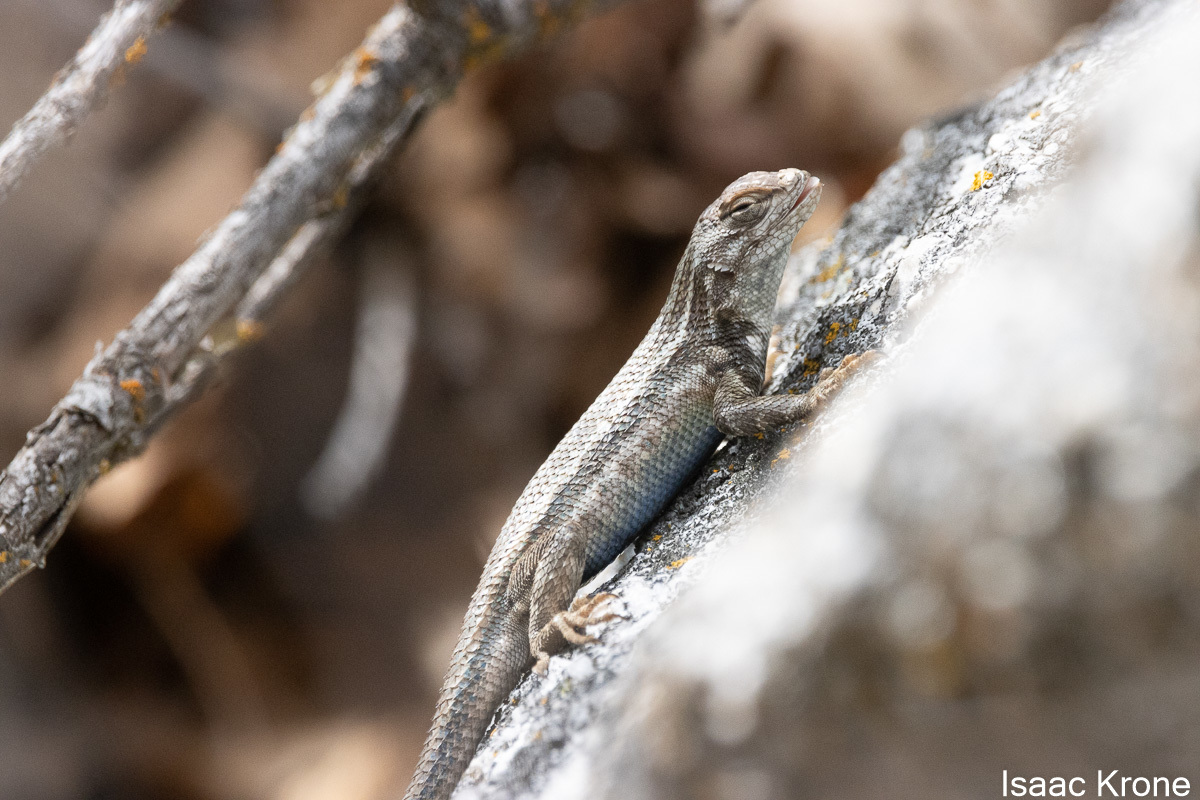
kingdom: Animalia
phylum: Chordata
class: Squamata
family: Phrynosomatidae
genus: Sceloporus
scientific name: Sceloporus graciosus
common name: Sagebrush lizard
